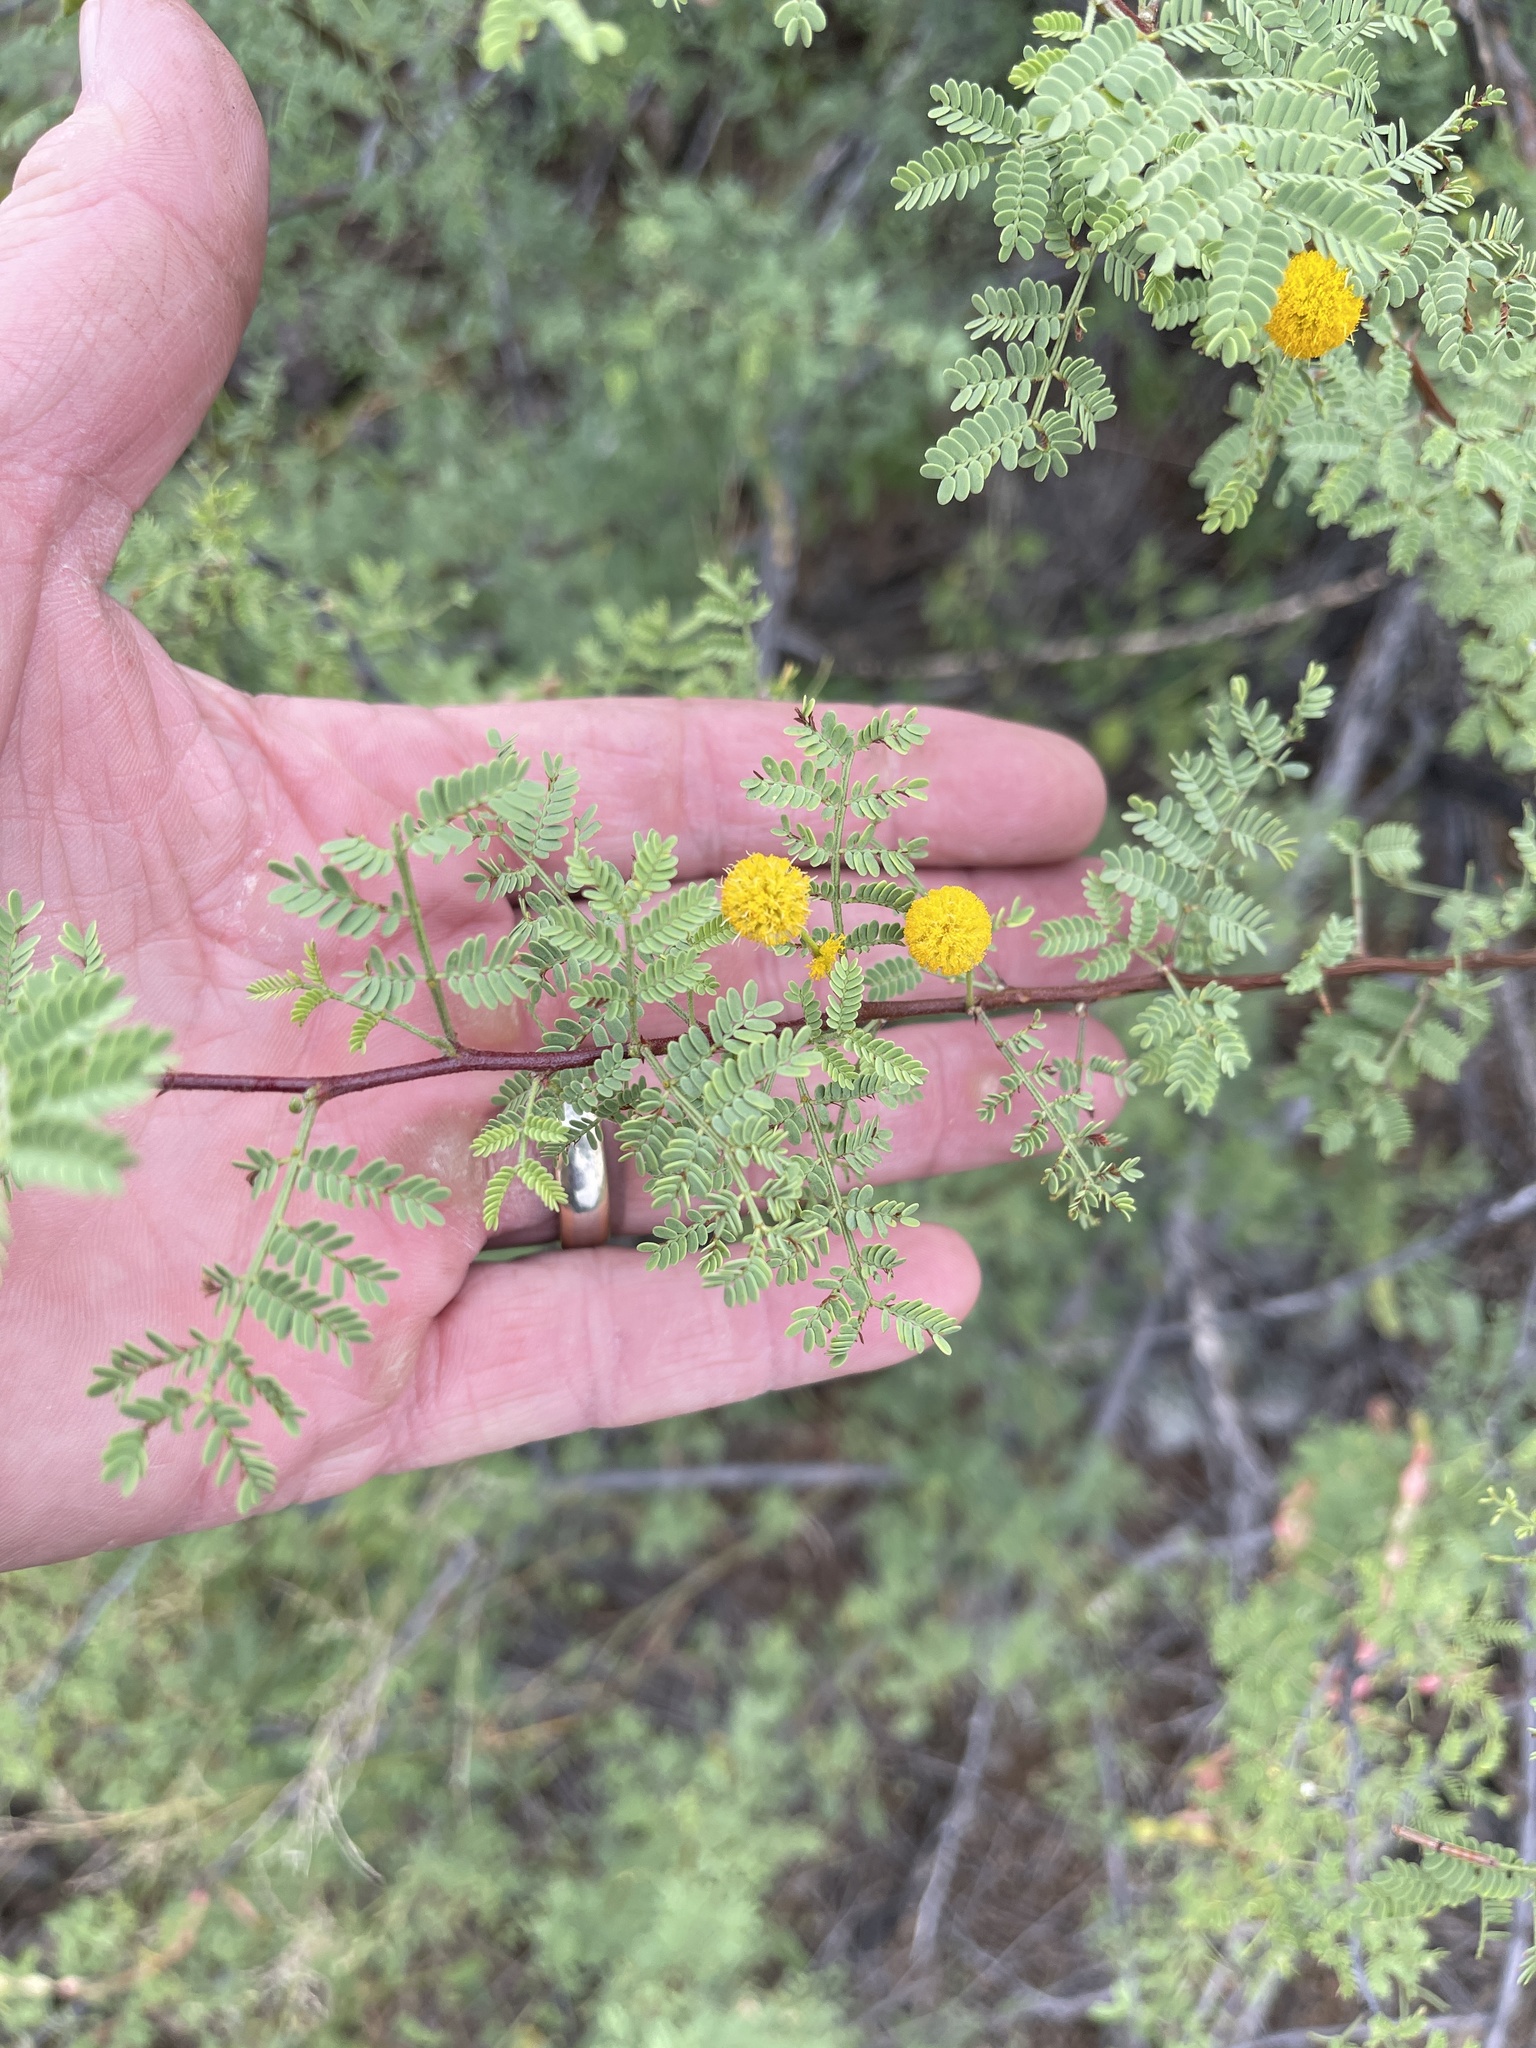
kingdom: Plantae
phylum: Tracheophyta
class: Magnoliopsida
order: Fabales
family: Fabaceae
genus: Vachellia
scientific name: Vachellia constricta
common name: Mescat acacia
